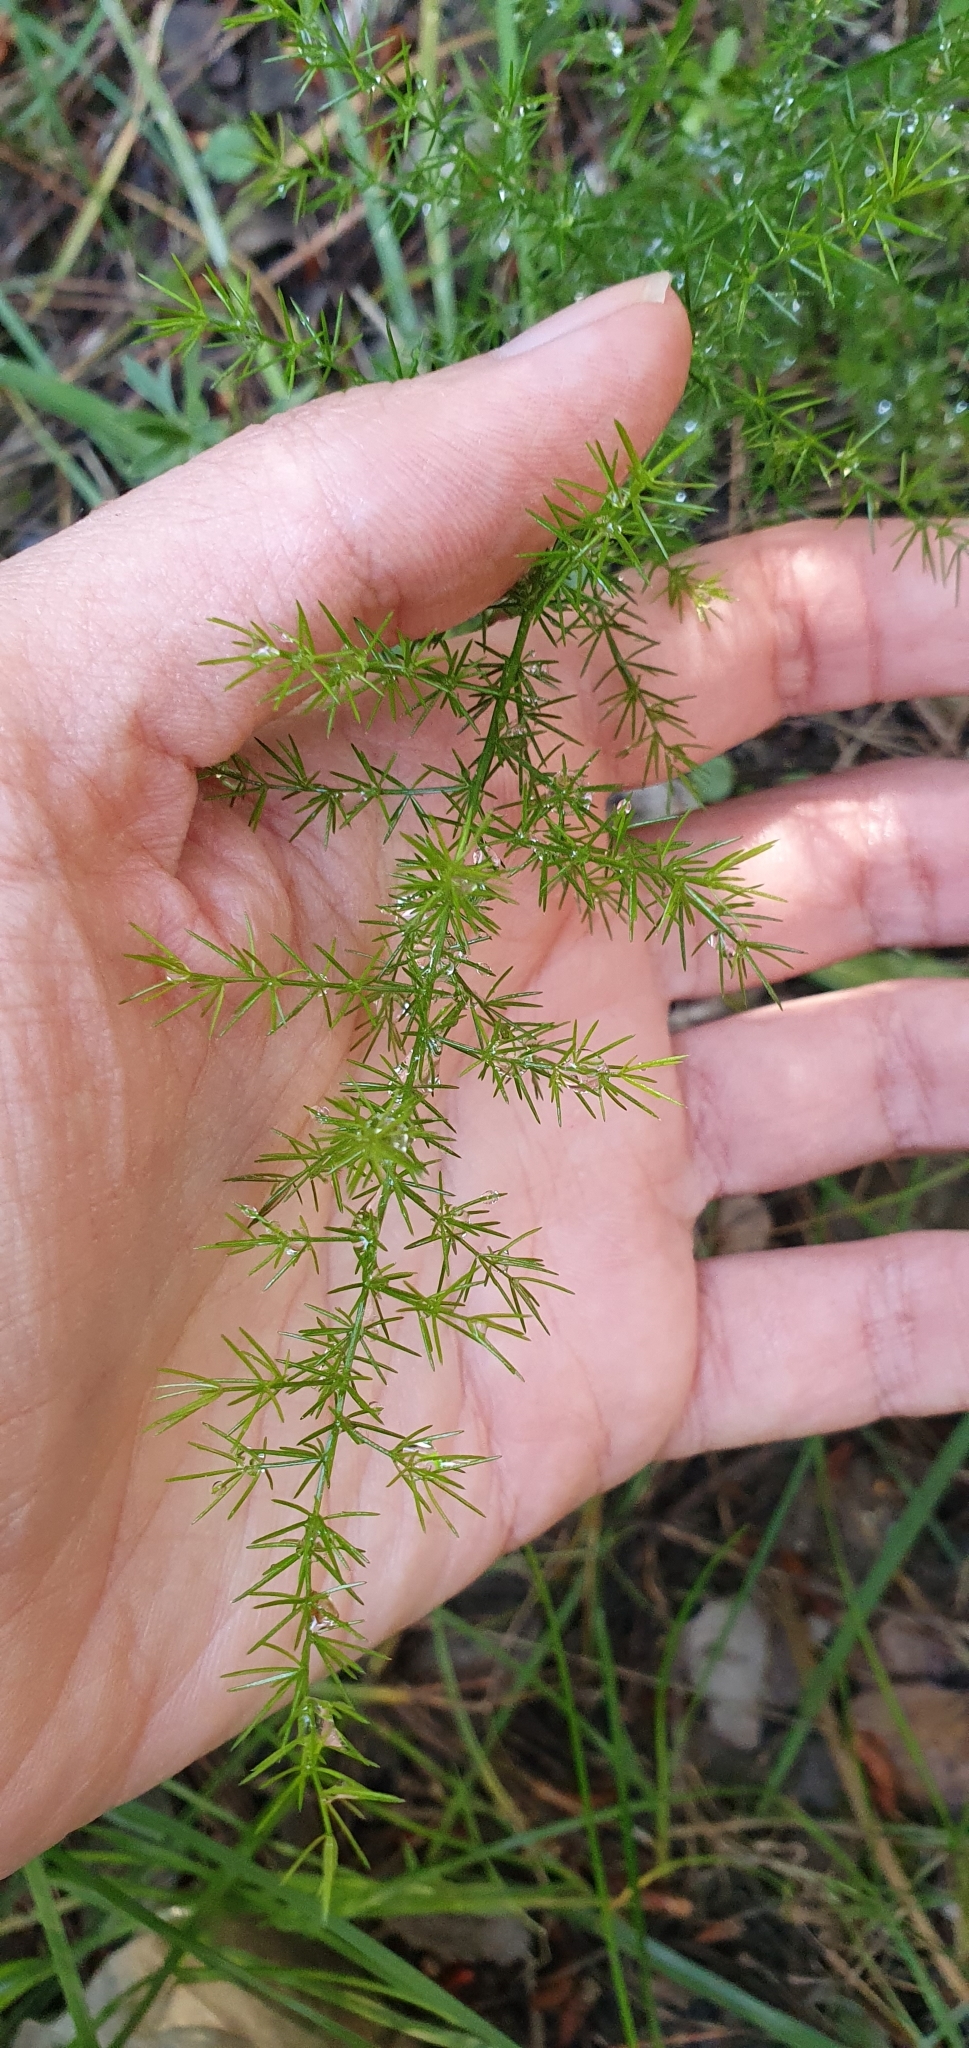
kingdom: Plantae
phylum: Tracheophyta
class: Liliopsida
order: Asparagales
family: Asparagaceae
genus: Asparagus
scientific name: Asparagus acutifolius
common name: Wild asparagus
